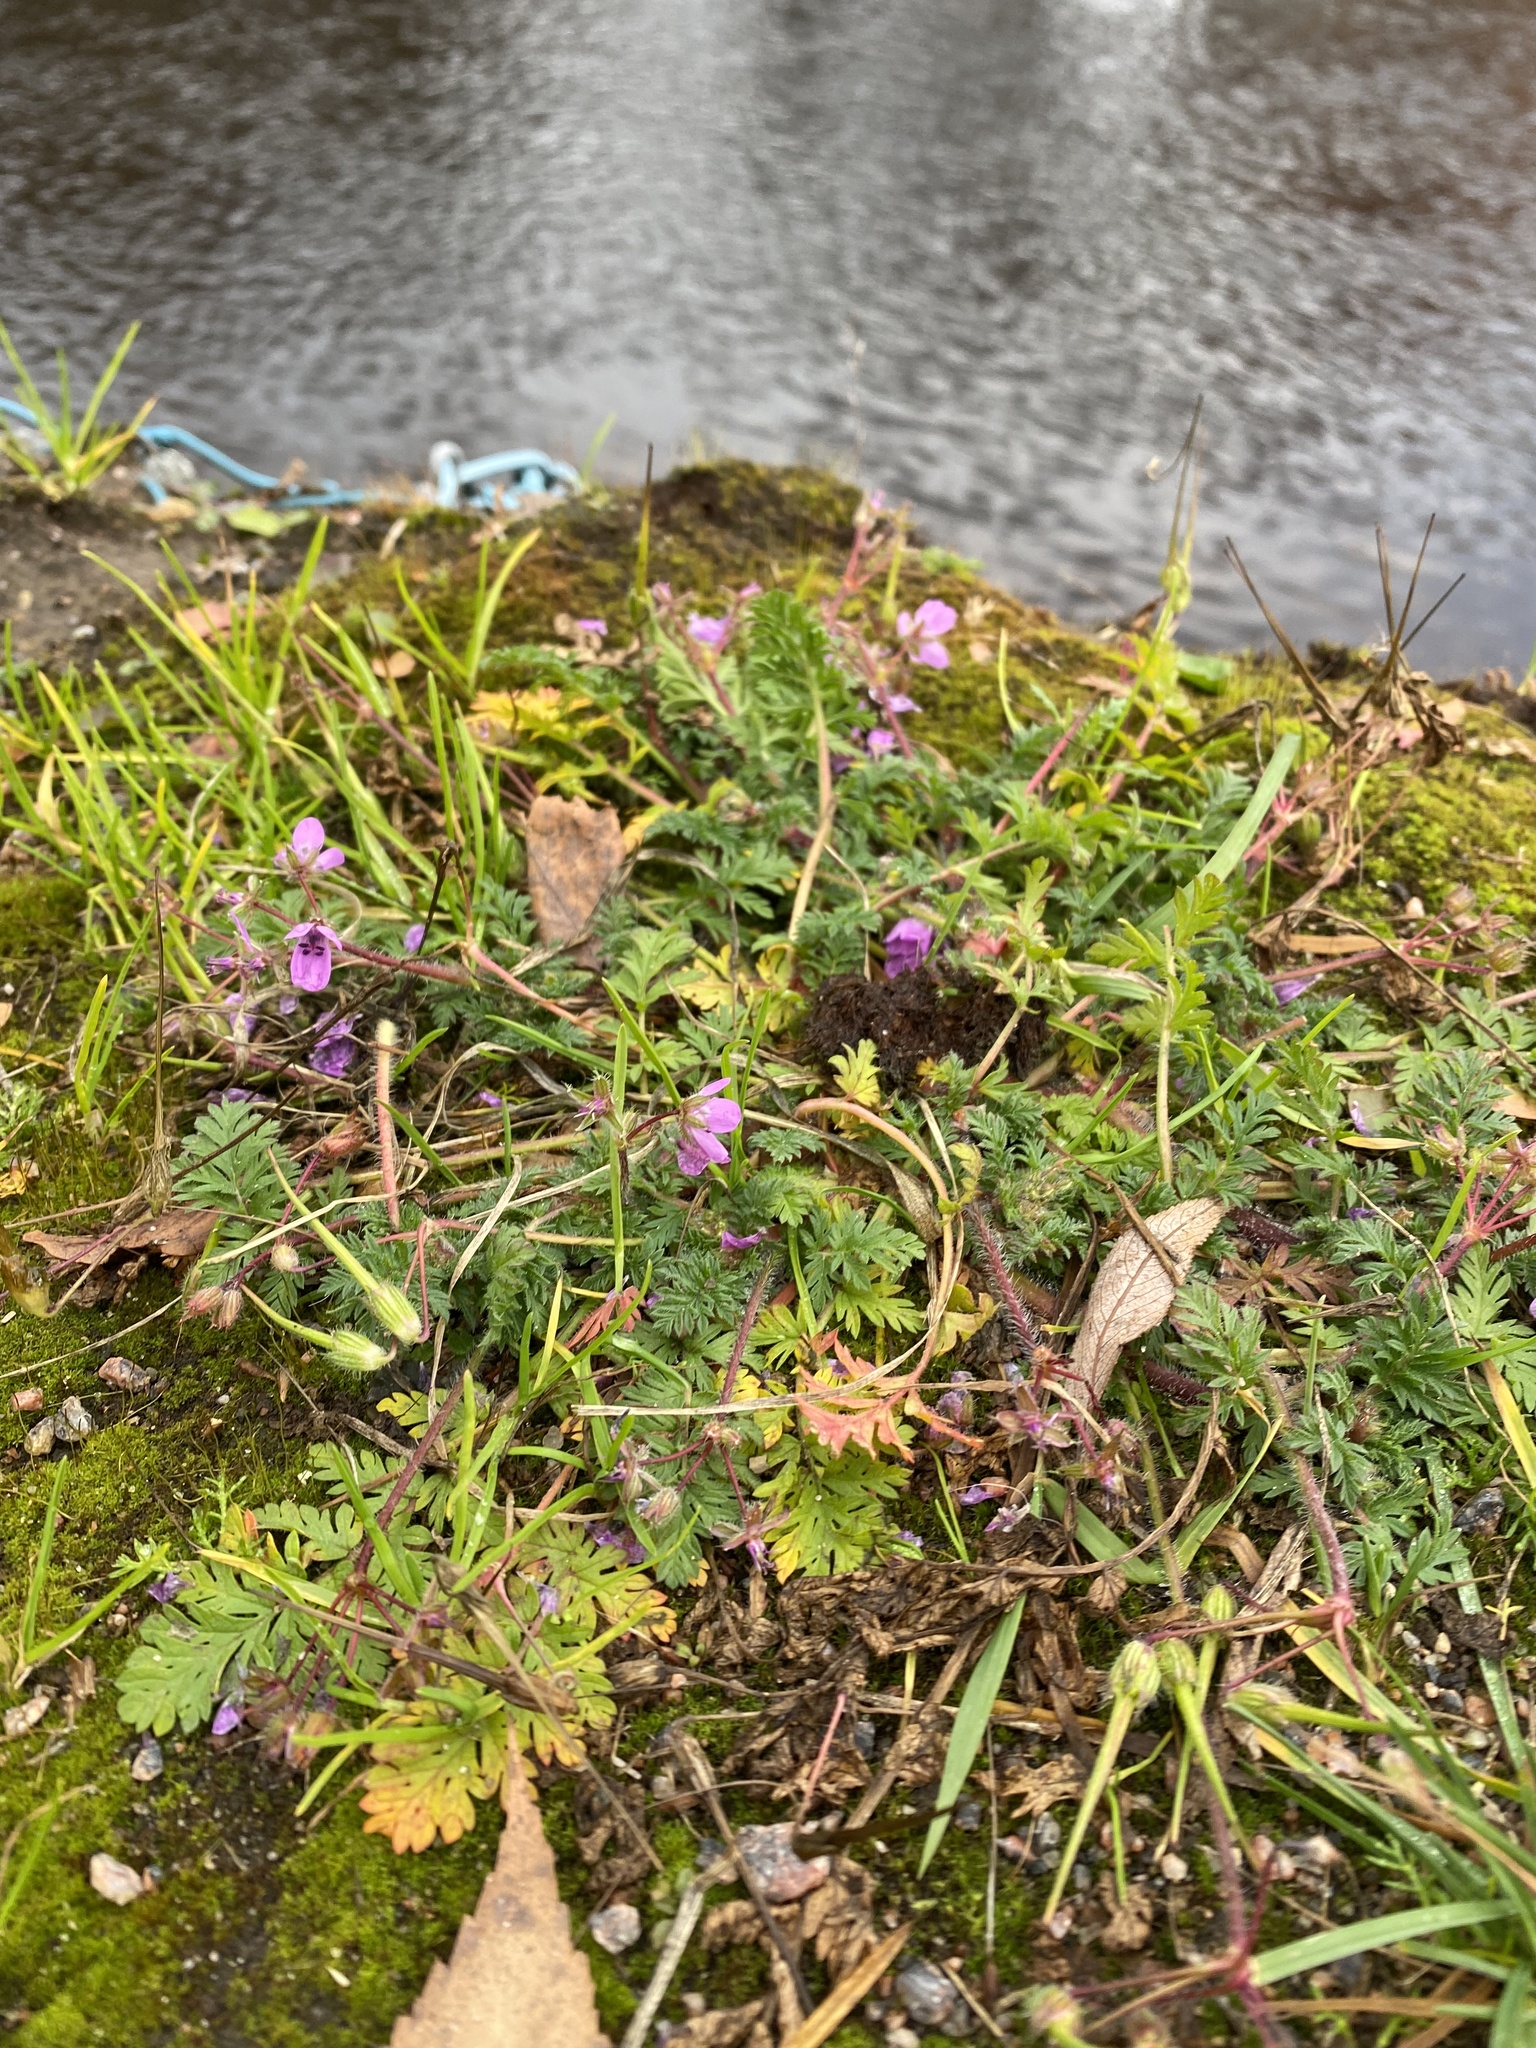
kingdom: Plantae
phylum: Tracheophyta
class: Magnoliopsida
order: Geraniales
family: Geraniaceae
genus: Erodium
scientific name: Erodium cicutarium
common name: Common stork's-bill
